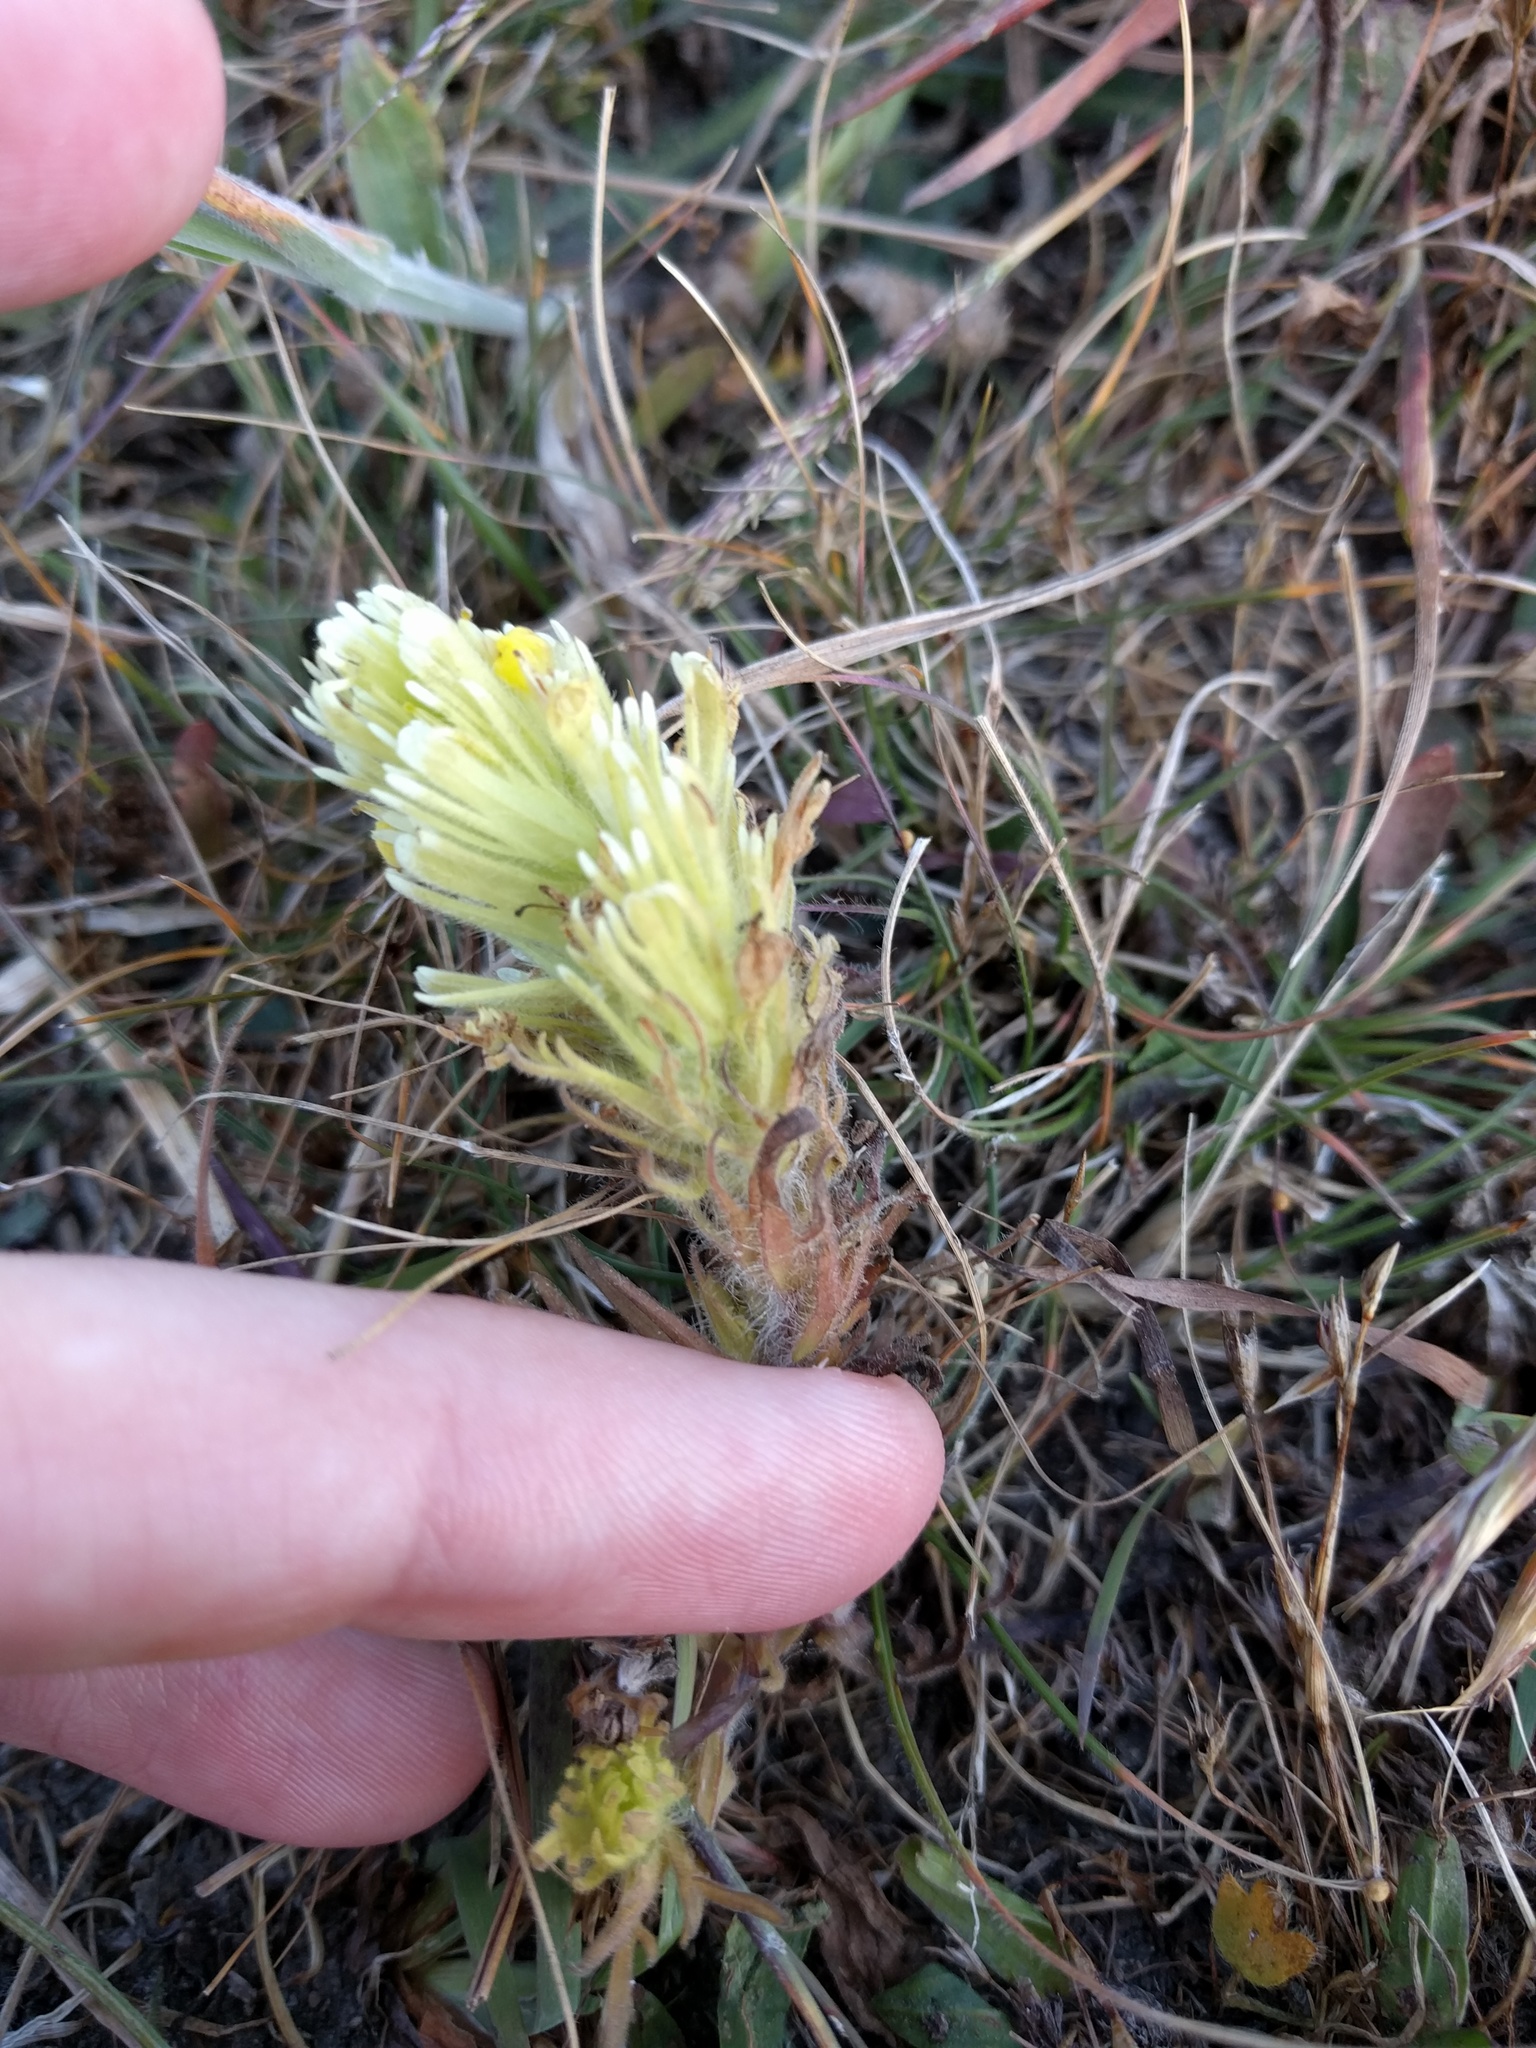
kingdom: Plantae
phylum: Tracheophyta
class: Magnoliopsida
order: Lamiales
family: Orobanchaceae
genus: Castilleja
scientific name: Castilleja ambigua
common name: Johnny-nip
